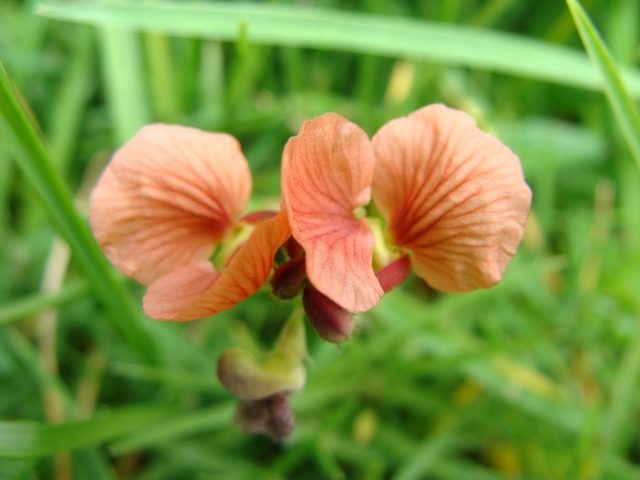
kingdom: Plantae
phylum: Tracheophyta
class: Magnoliopsida
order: Fabales
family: Fabaceae
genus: Macroptilium
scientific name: Macroptilium gibbosifolium
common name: Variableleaf bushbean
